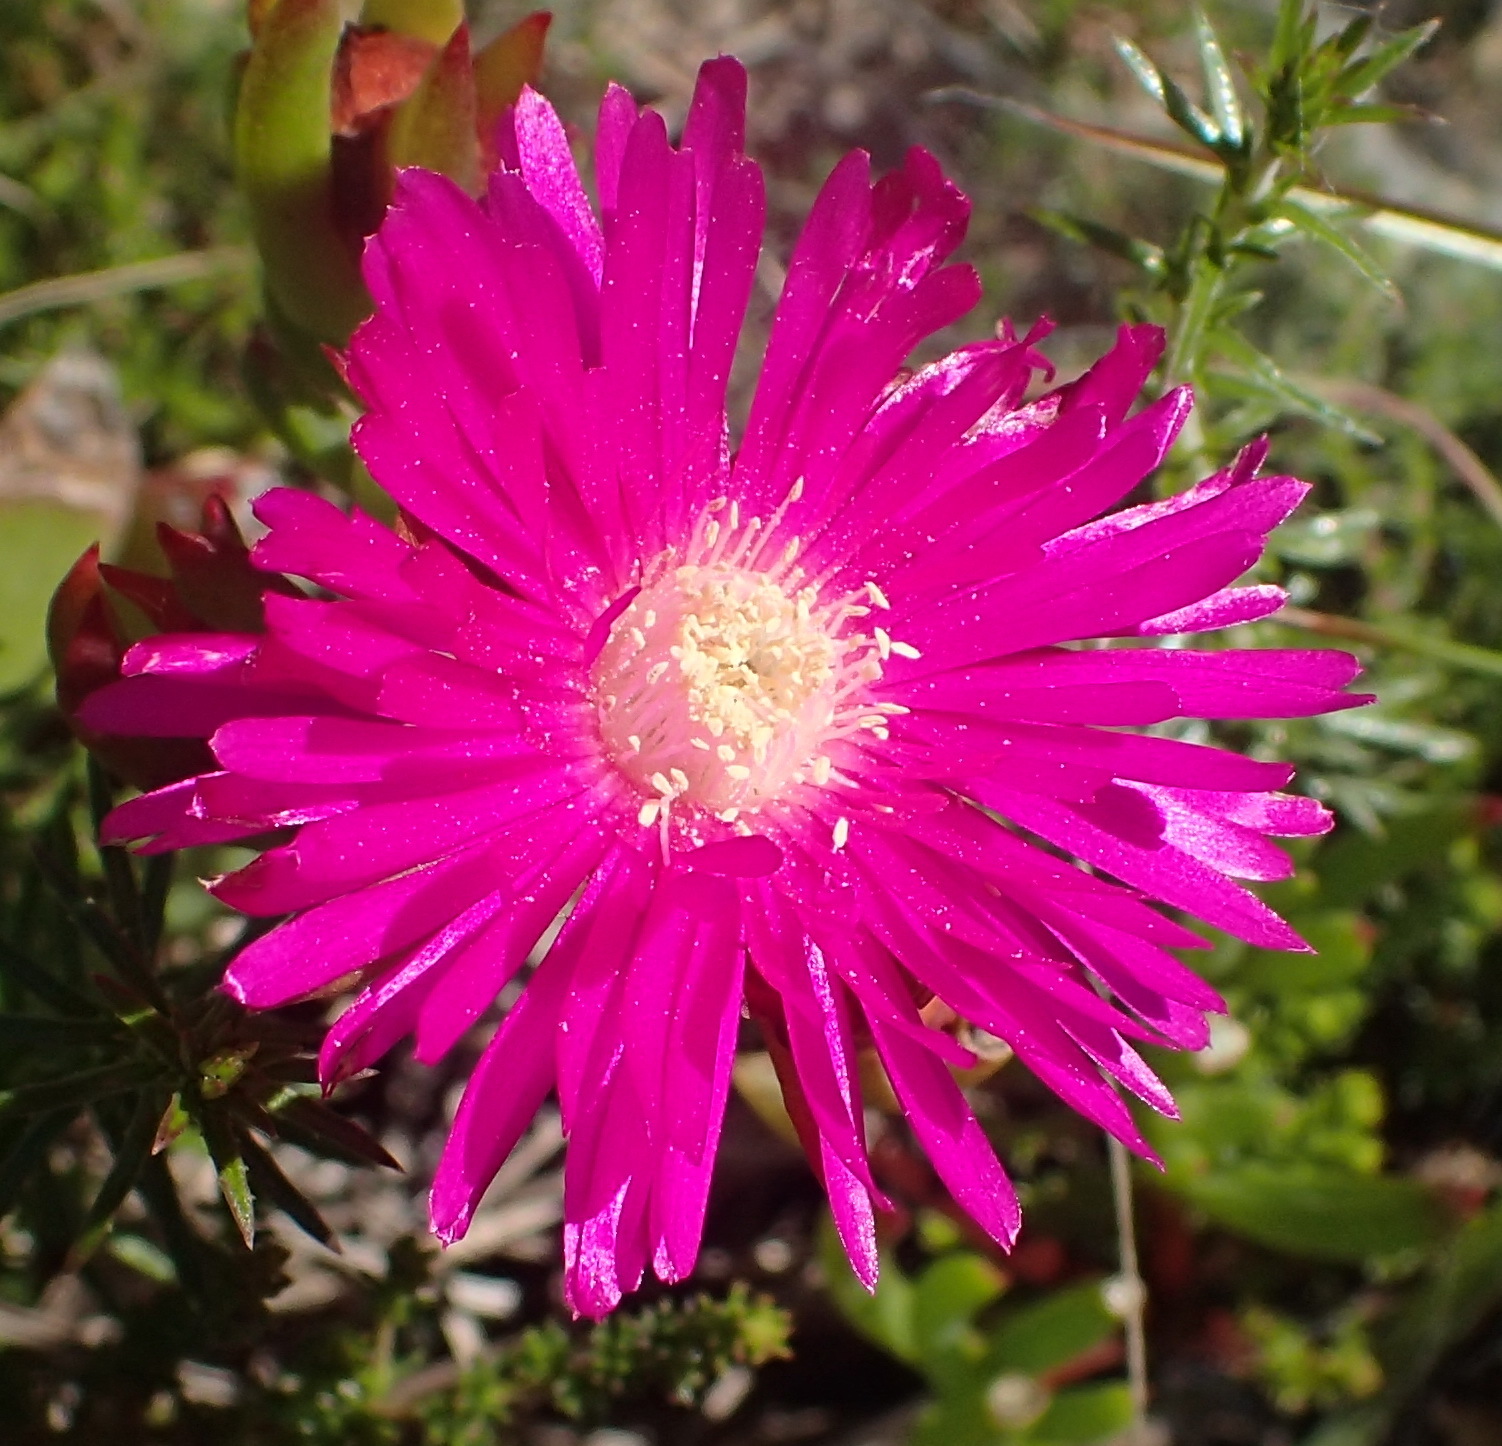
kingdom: Plantae
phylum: Tracheophyta
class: Magnoliopsida
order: Caryophyllales
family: Aizoaceae
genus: Ruschia
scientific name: Ruschia duthiae
